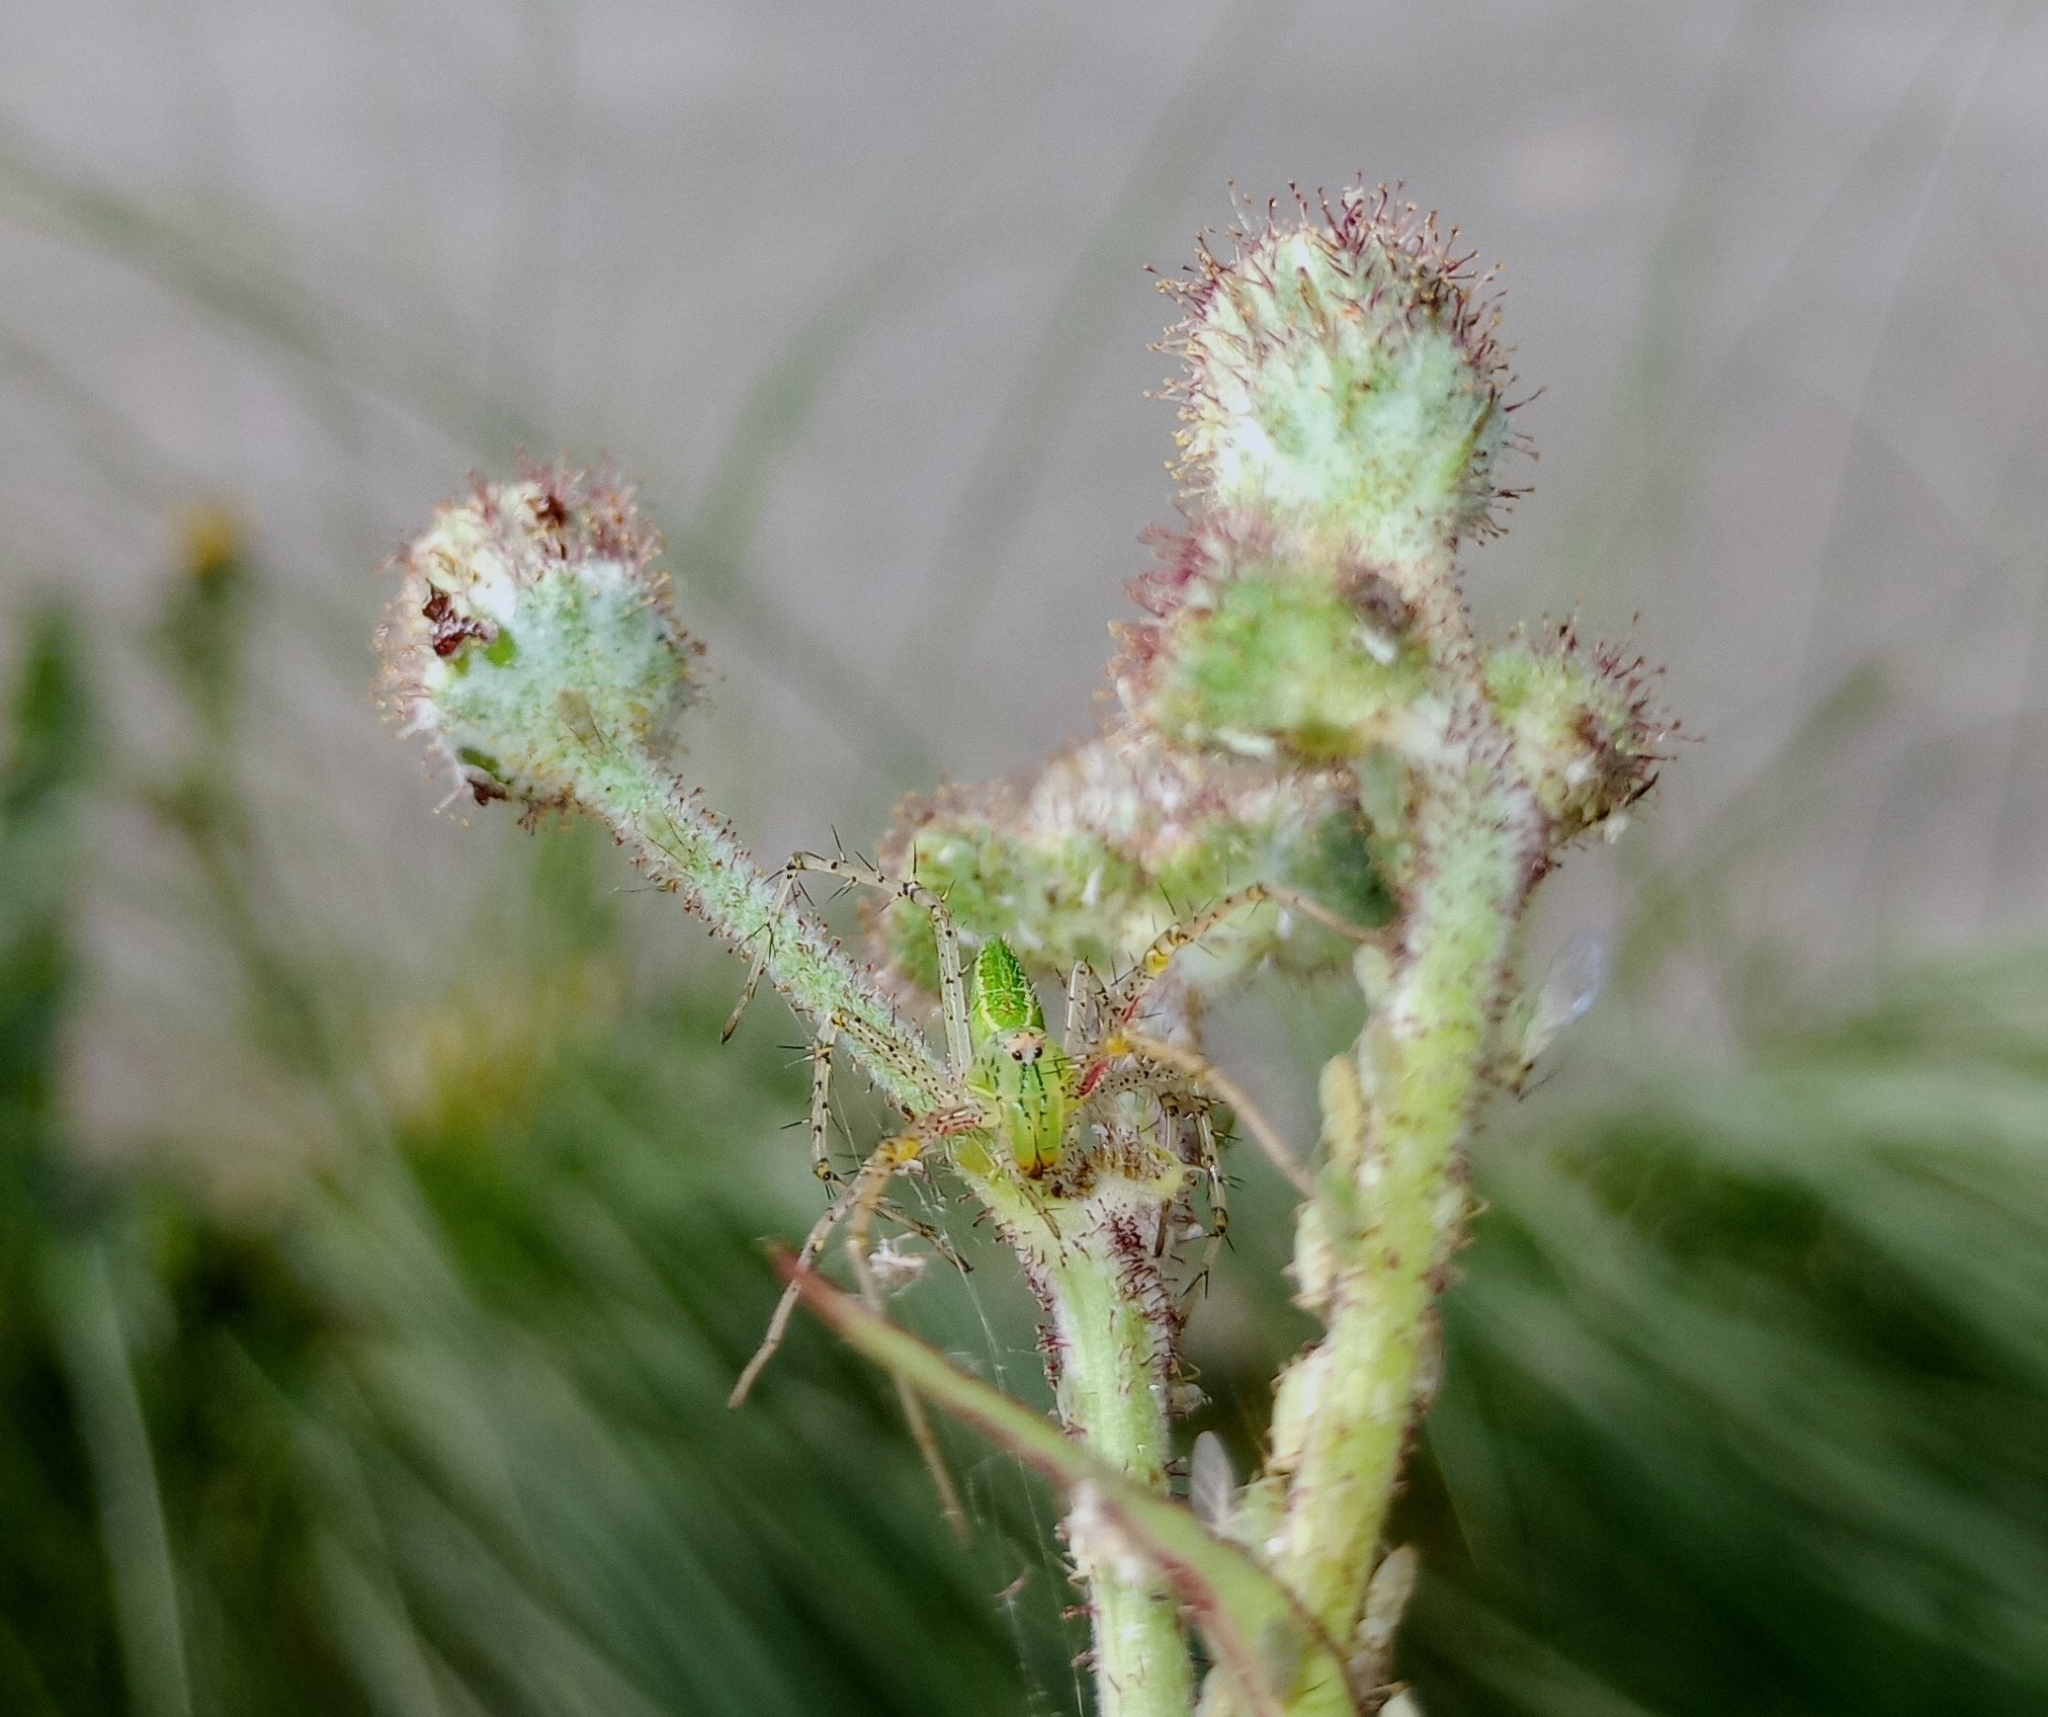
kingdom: Animalia
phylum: Arthropoda
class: Arachnida
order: Araneae
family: Oxyopidae
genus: Peucetia
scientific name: Peucetia viridana
